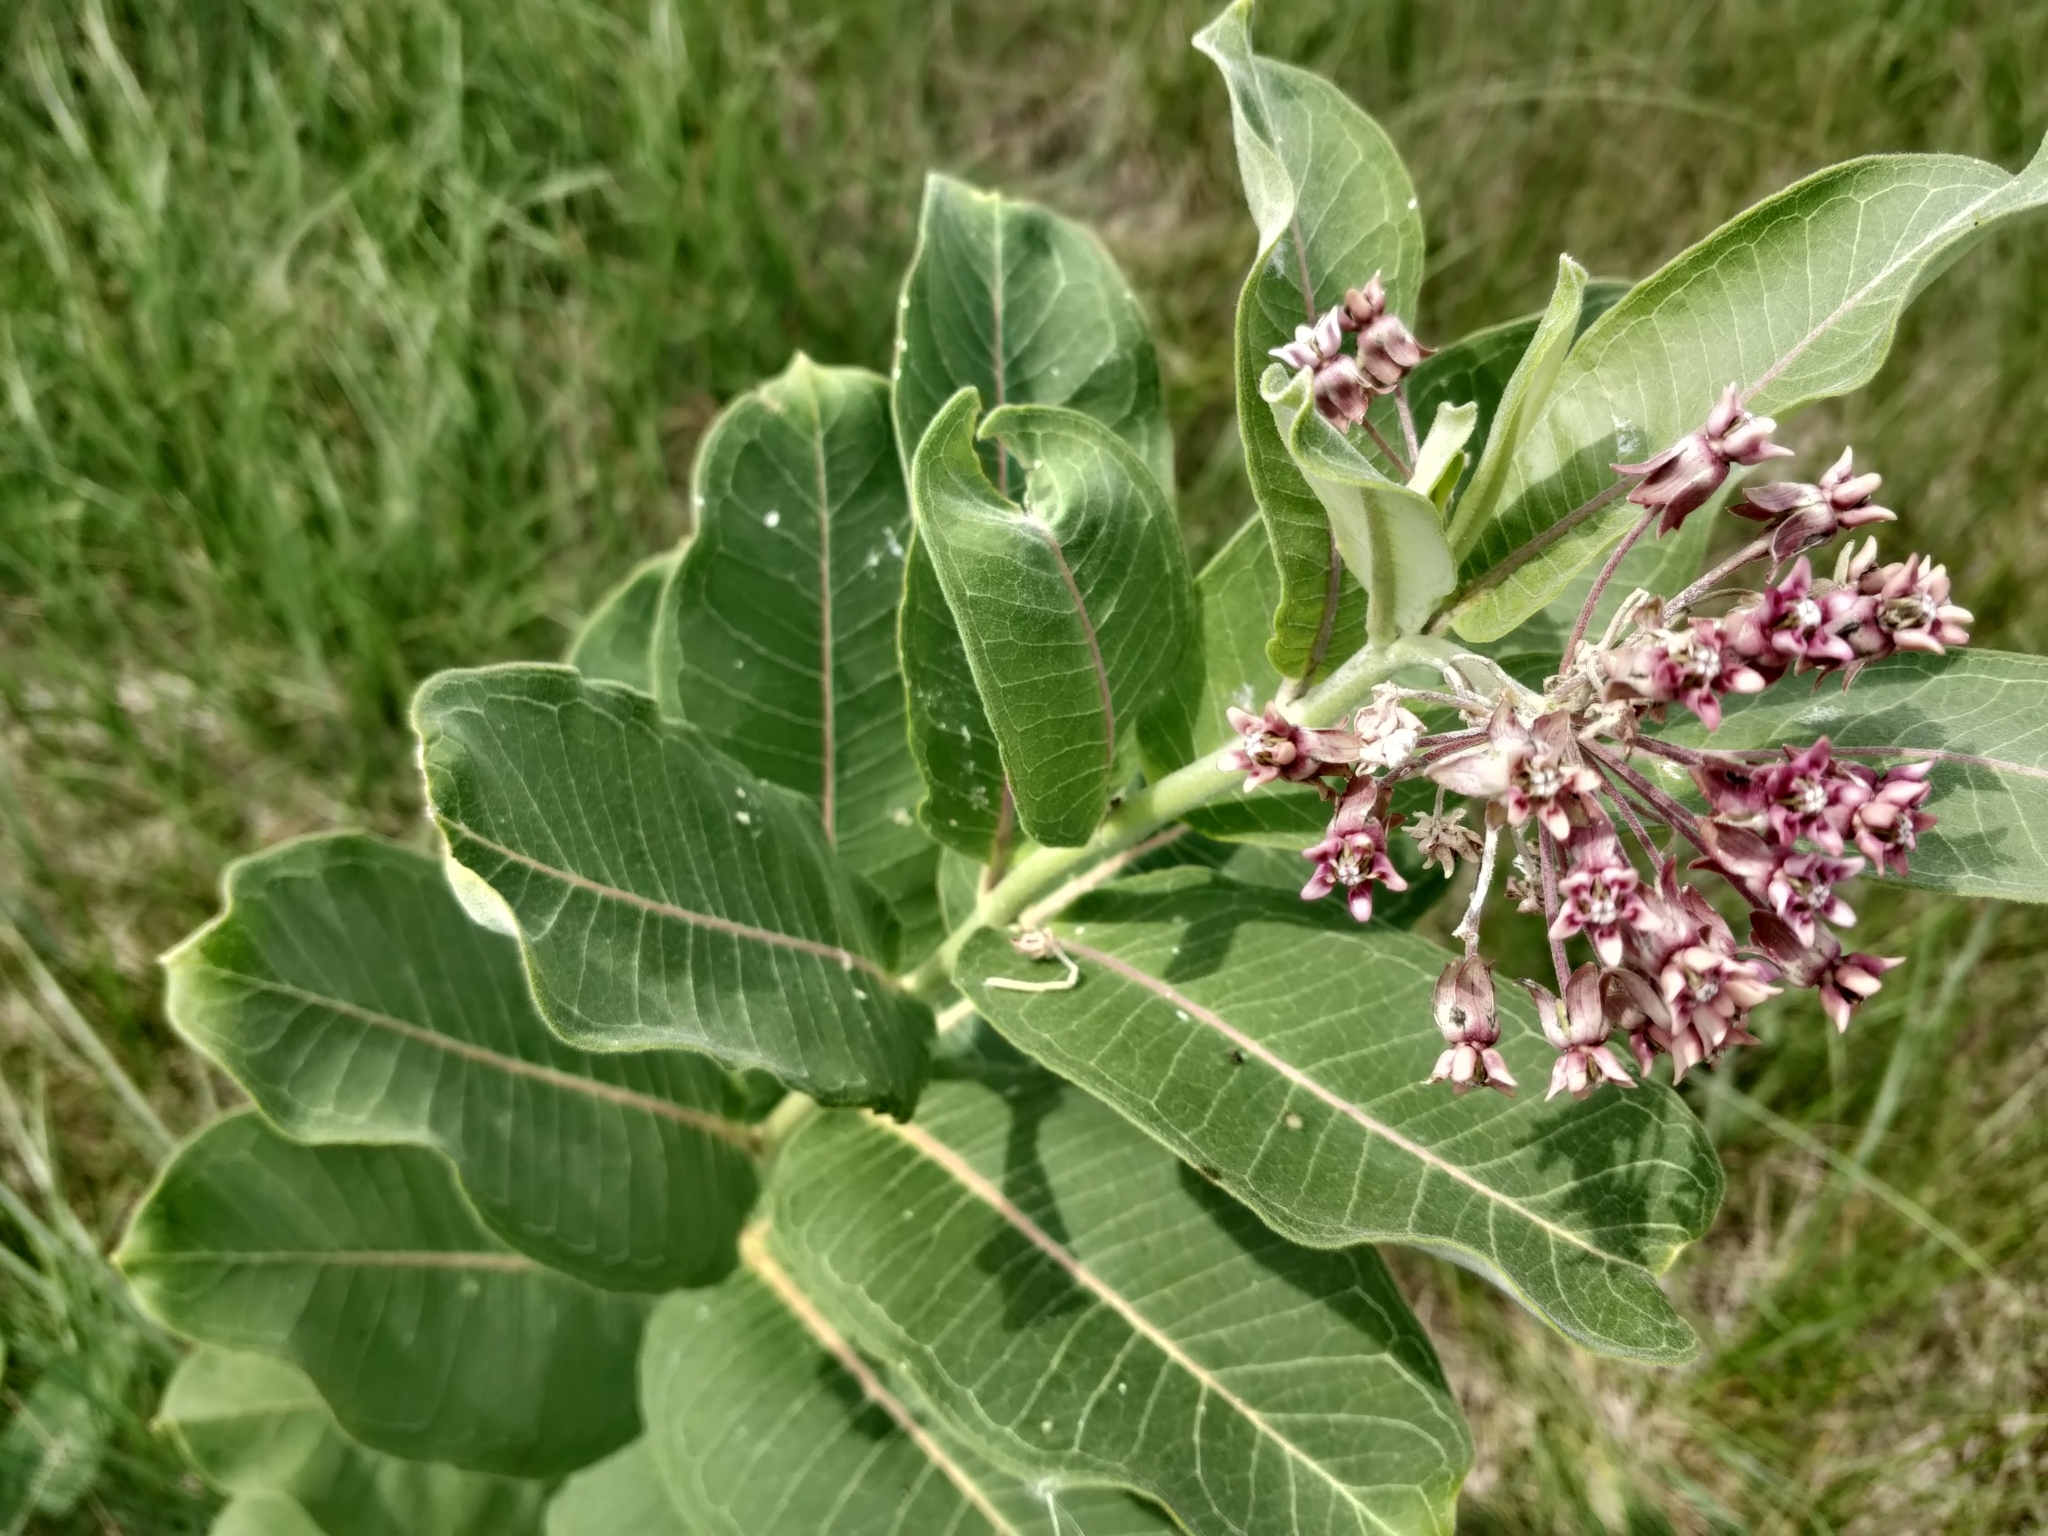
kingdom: Plantae
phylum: Tracheophyta
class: Magnoliopsida
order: Gentianales
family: Apocynaceae
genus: Asclepias
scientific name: Asclepias syriaca
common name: Common milkweed
